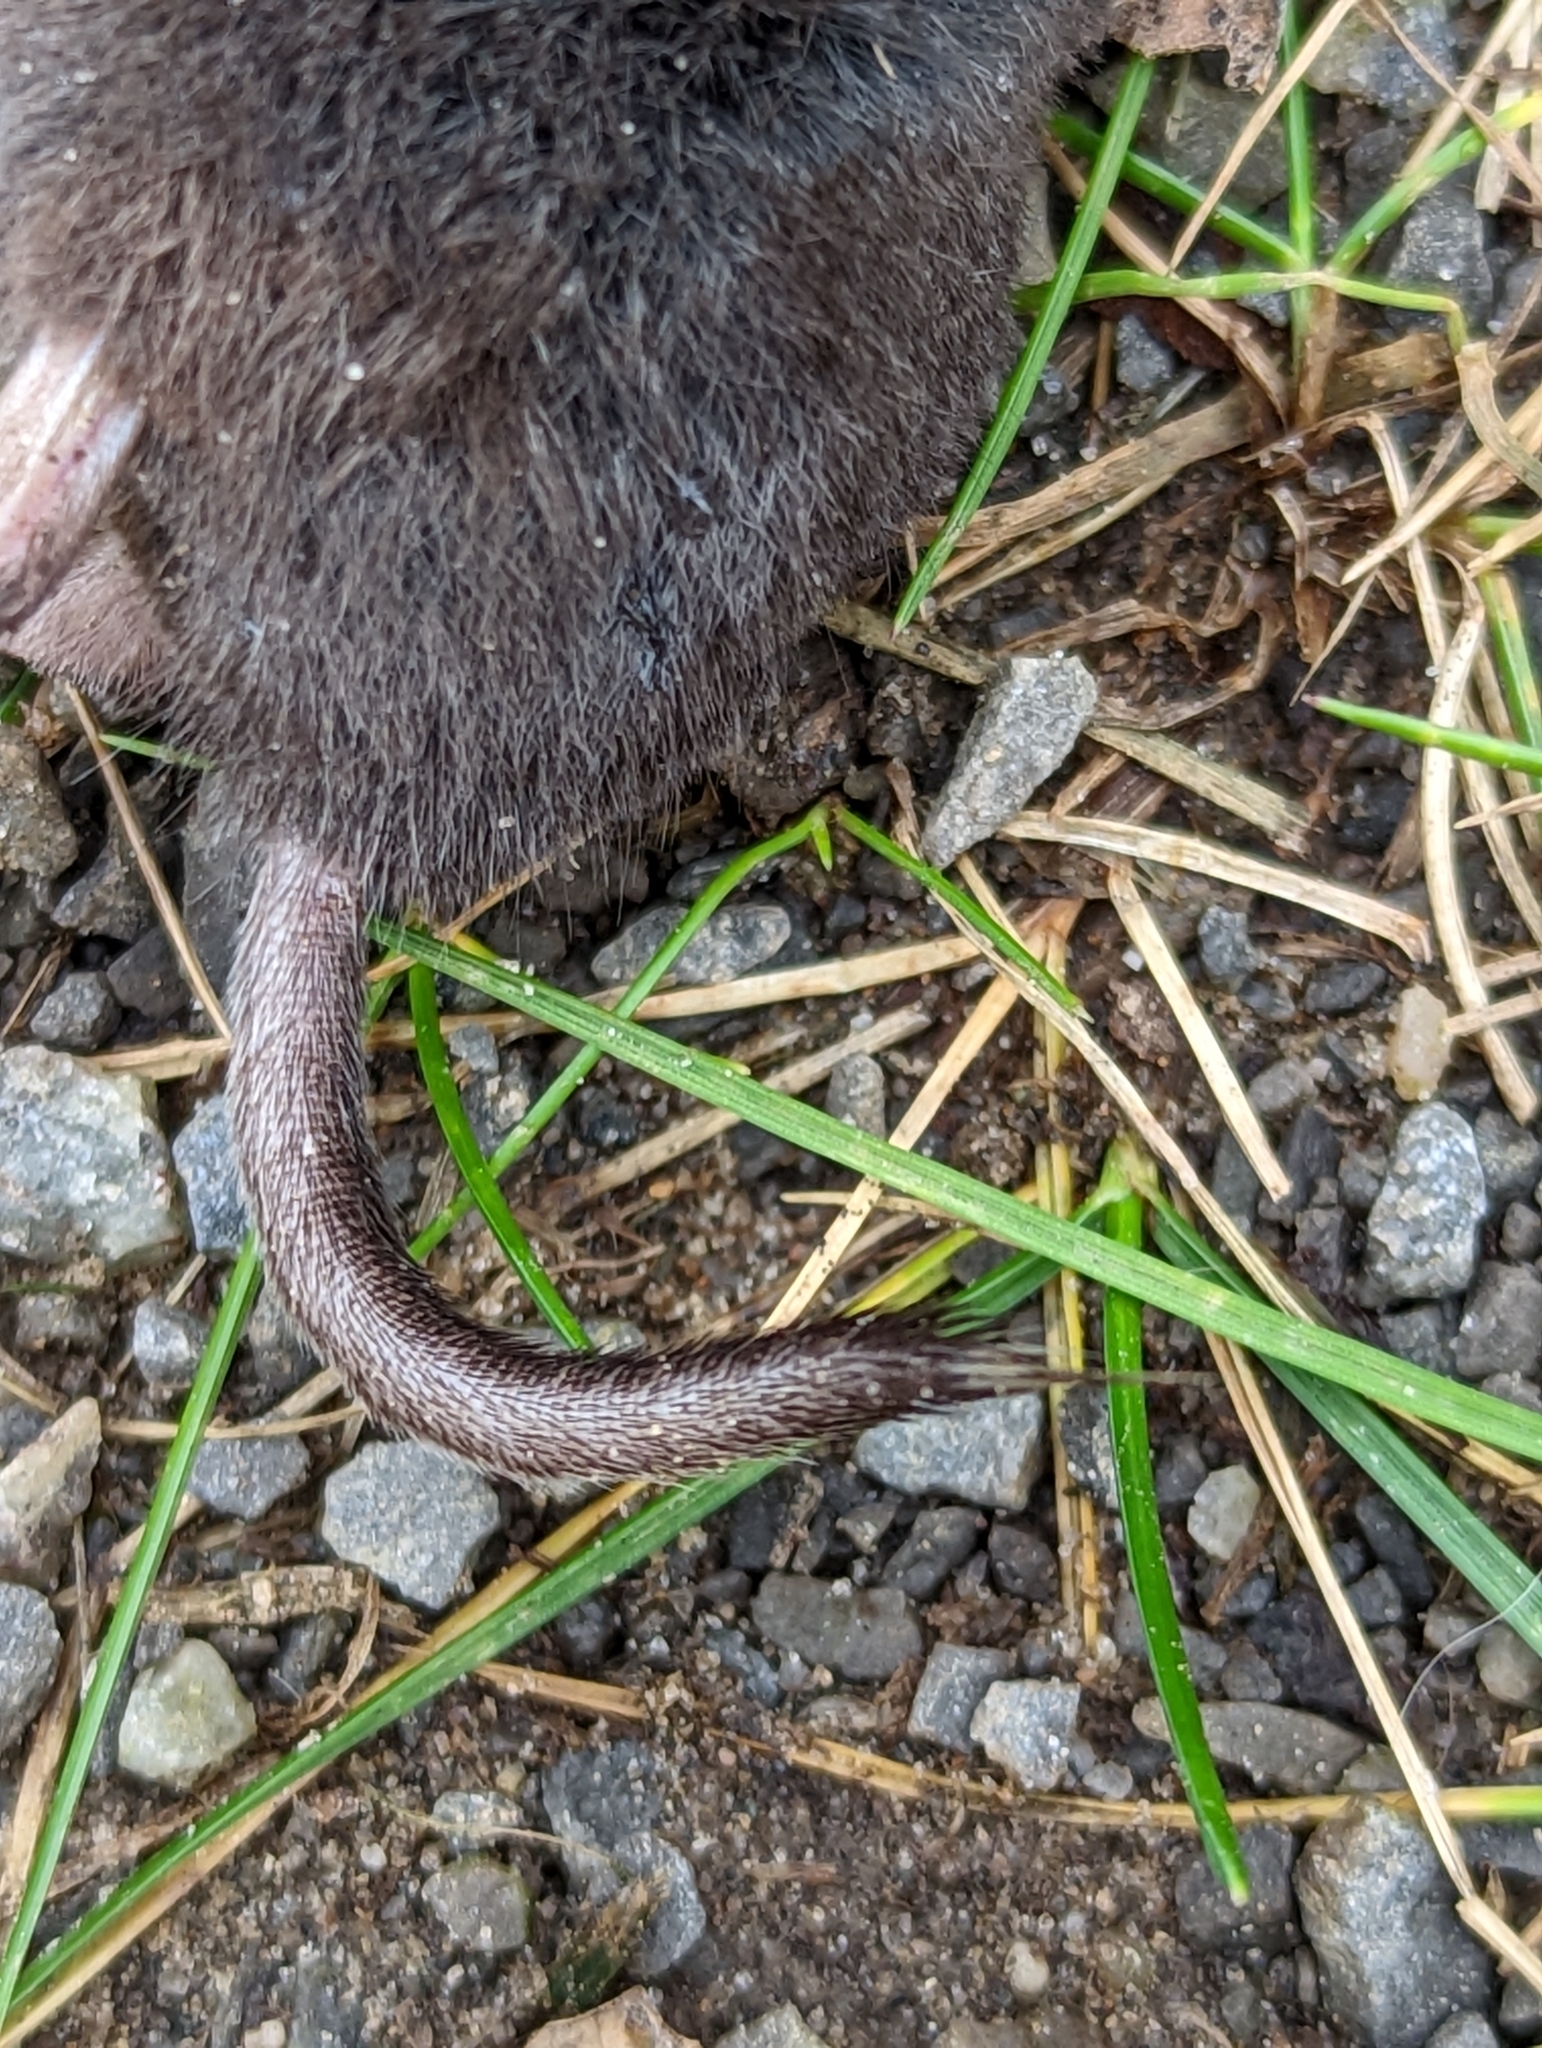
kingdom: Animalia
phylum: Chordata
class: Mammalia
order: Soricomorpha
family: Soricidae
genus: Blarina
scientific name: Blarina brevicauda
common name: Northern short-tailed shrew
